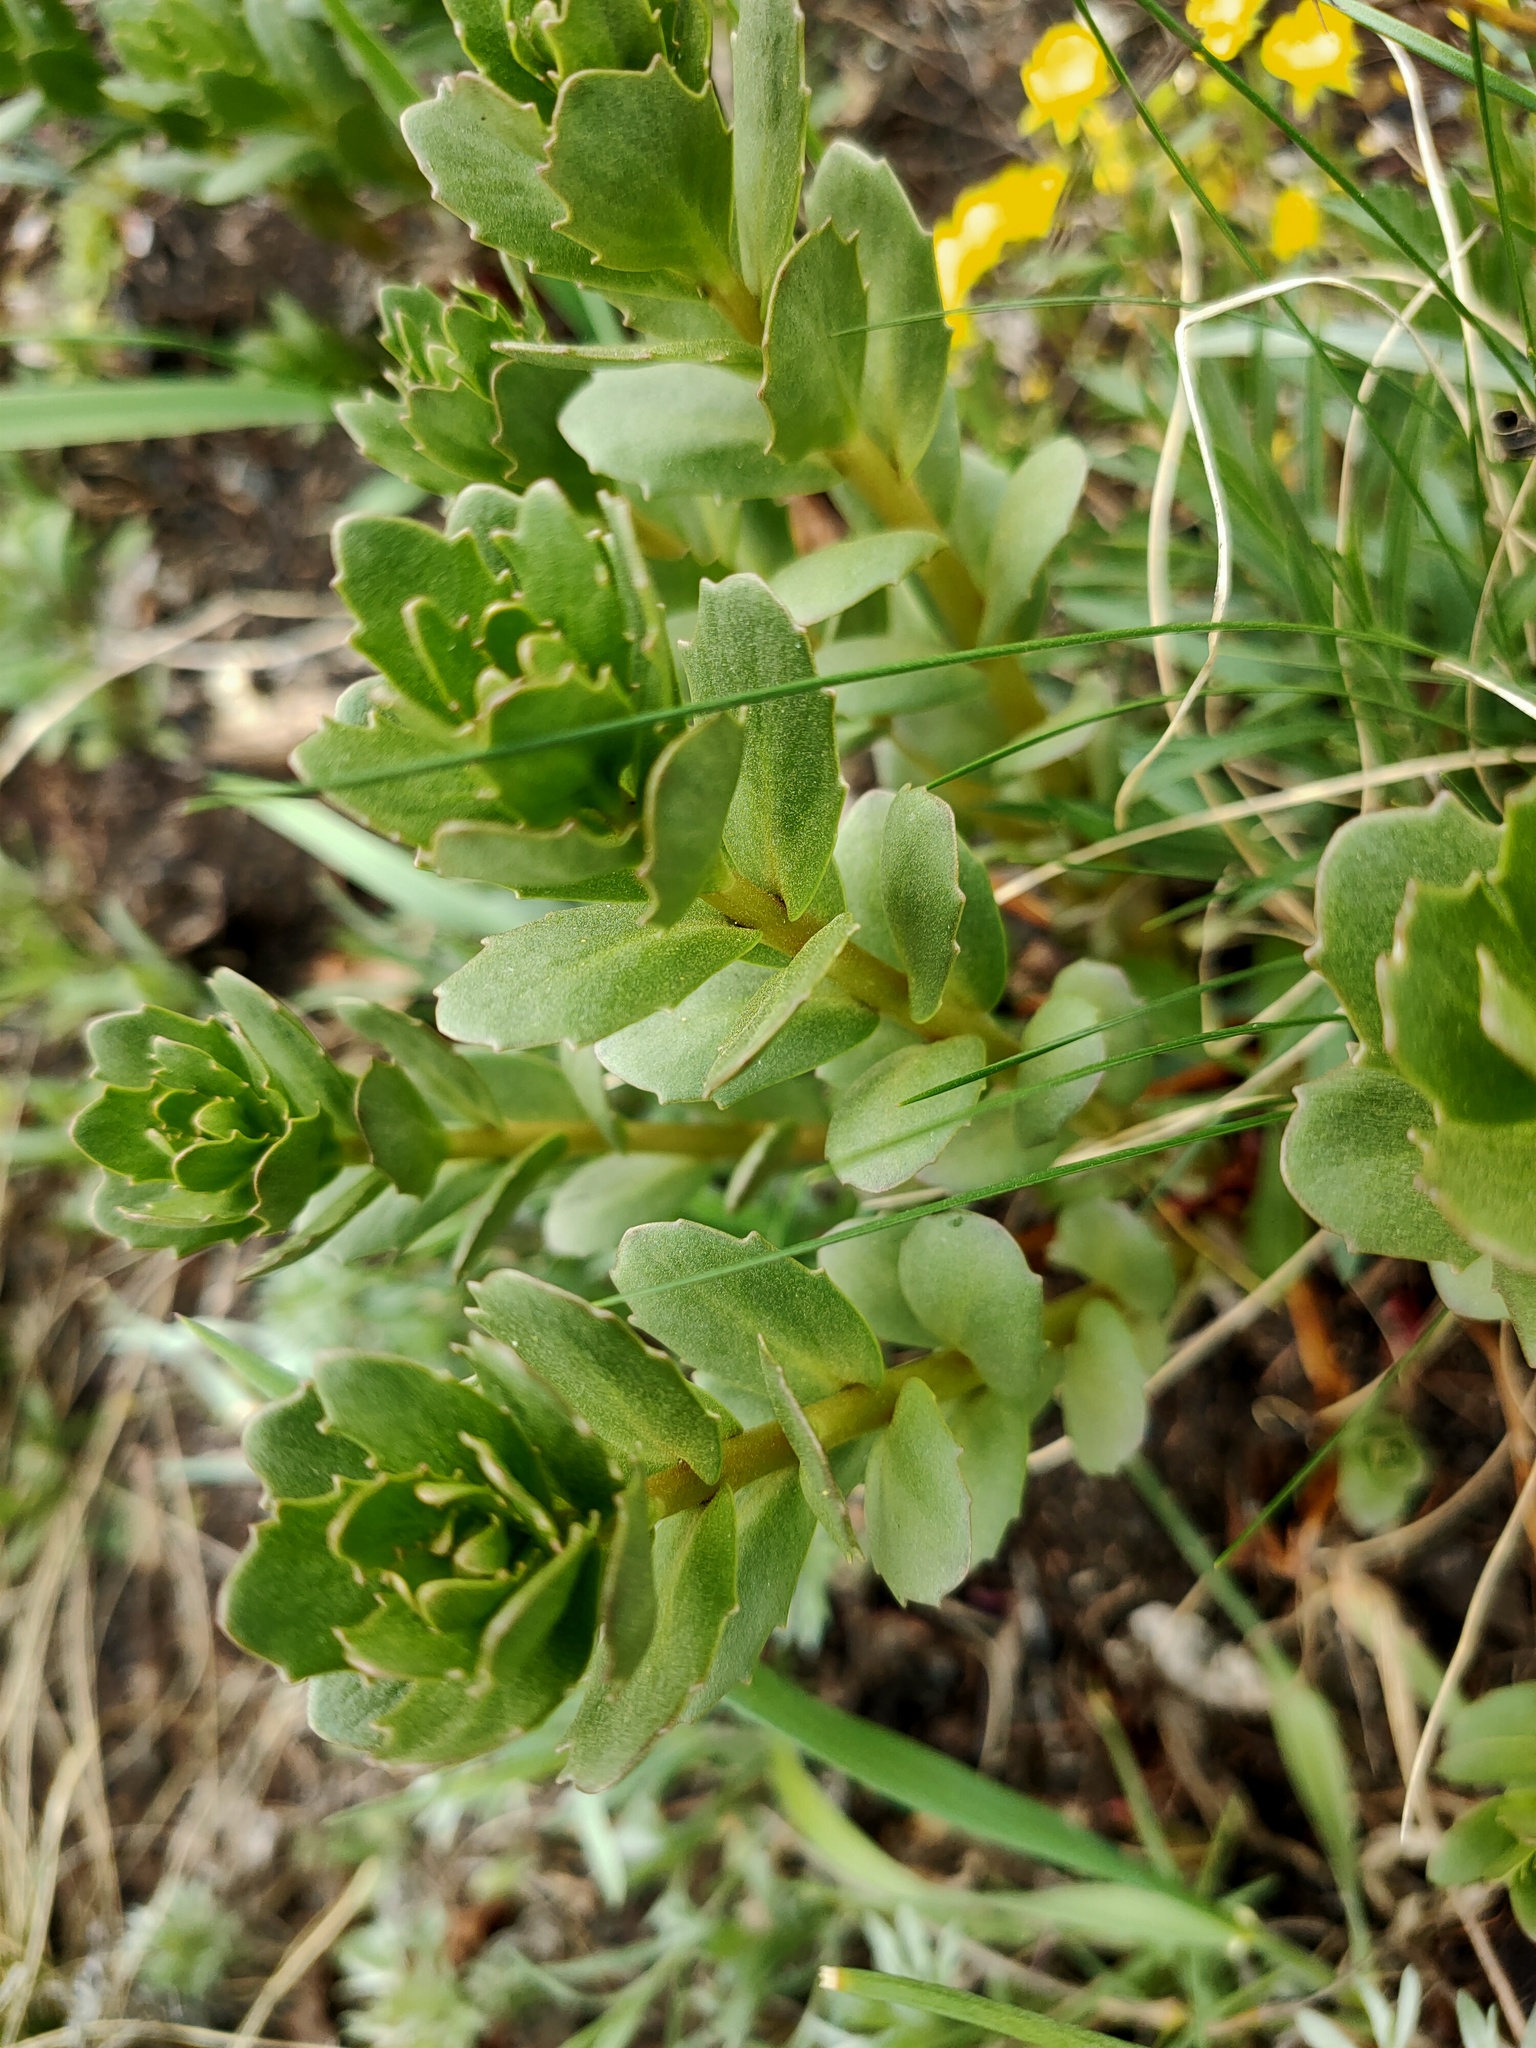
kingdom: Plantae
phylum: Tracheophyta
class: Magnoliopsida
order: Saxifragales
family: Crassulaceae
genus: Hylotelephium
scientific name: Hylotelephium telephium
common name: Live-forever
